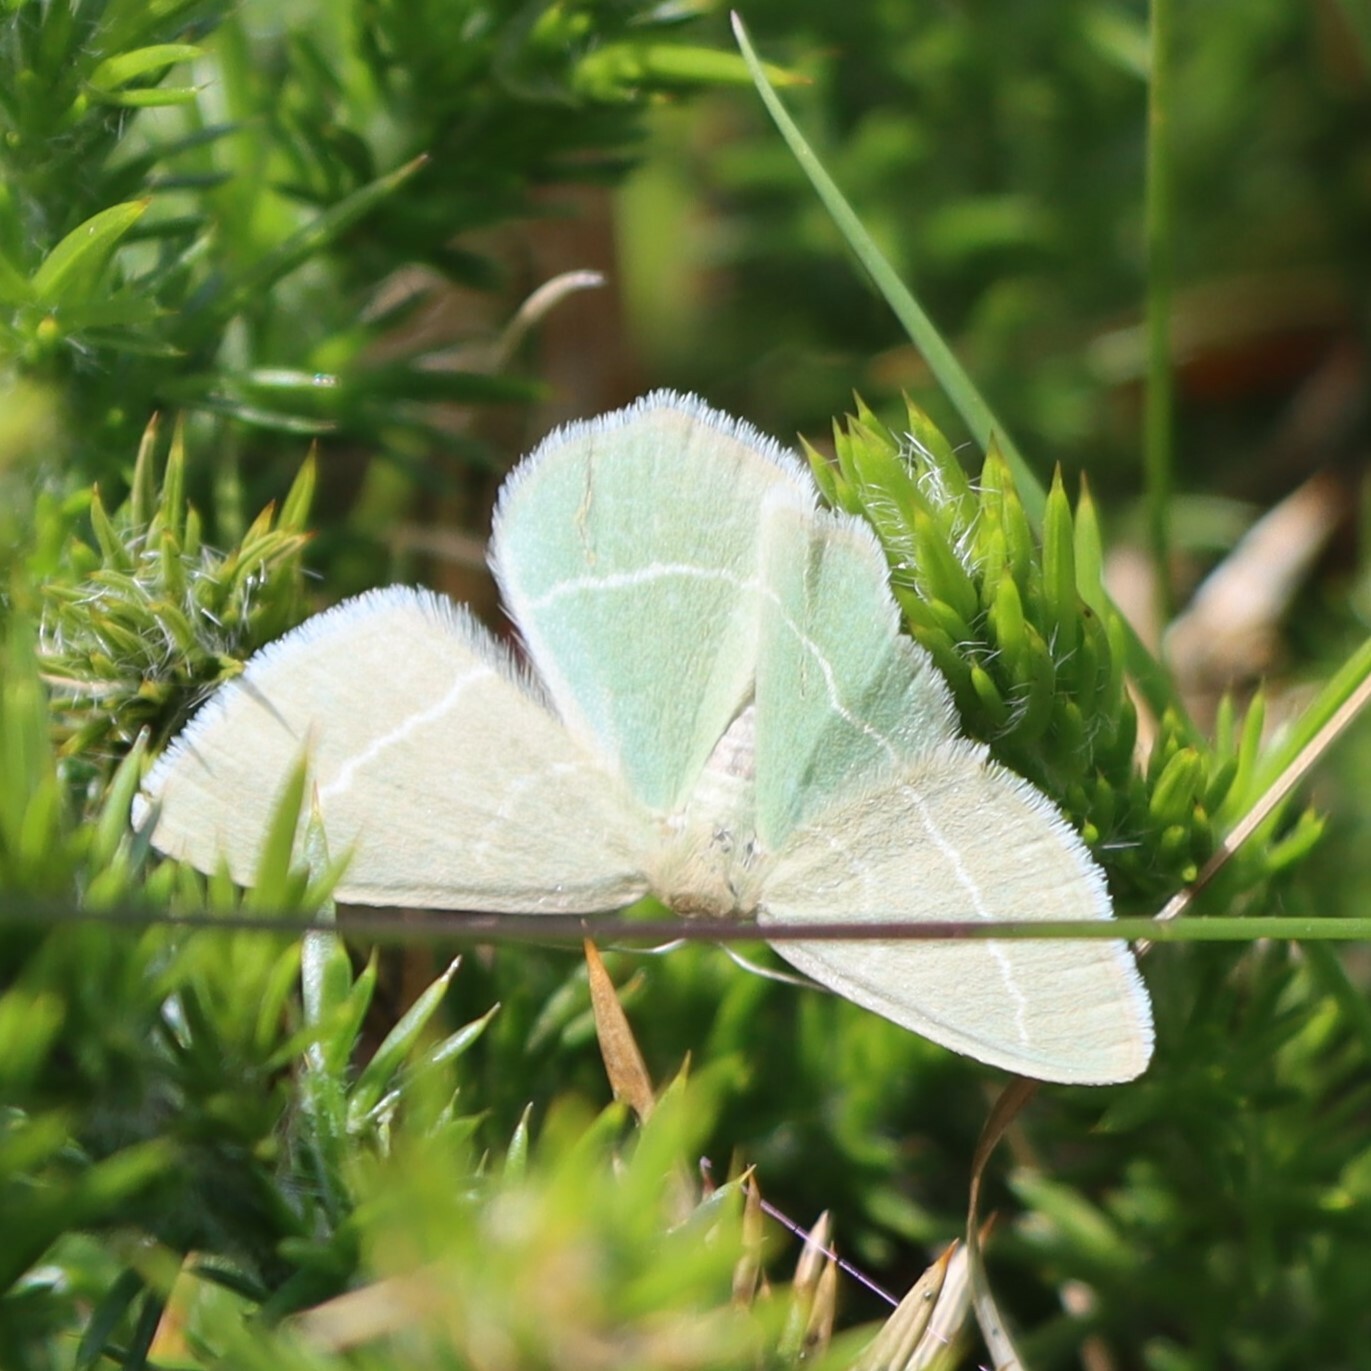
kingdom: Animalia
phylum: Arthropoda
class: Insecta
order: Lepidoptera
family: Geometridae
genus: Chlorissa
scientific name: Chlorissa viridata
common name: Small grass emerald
